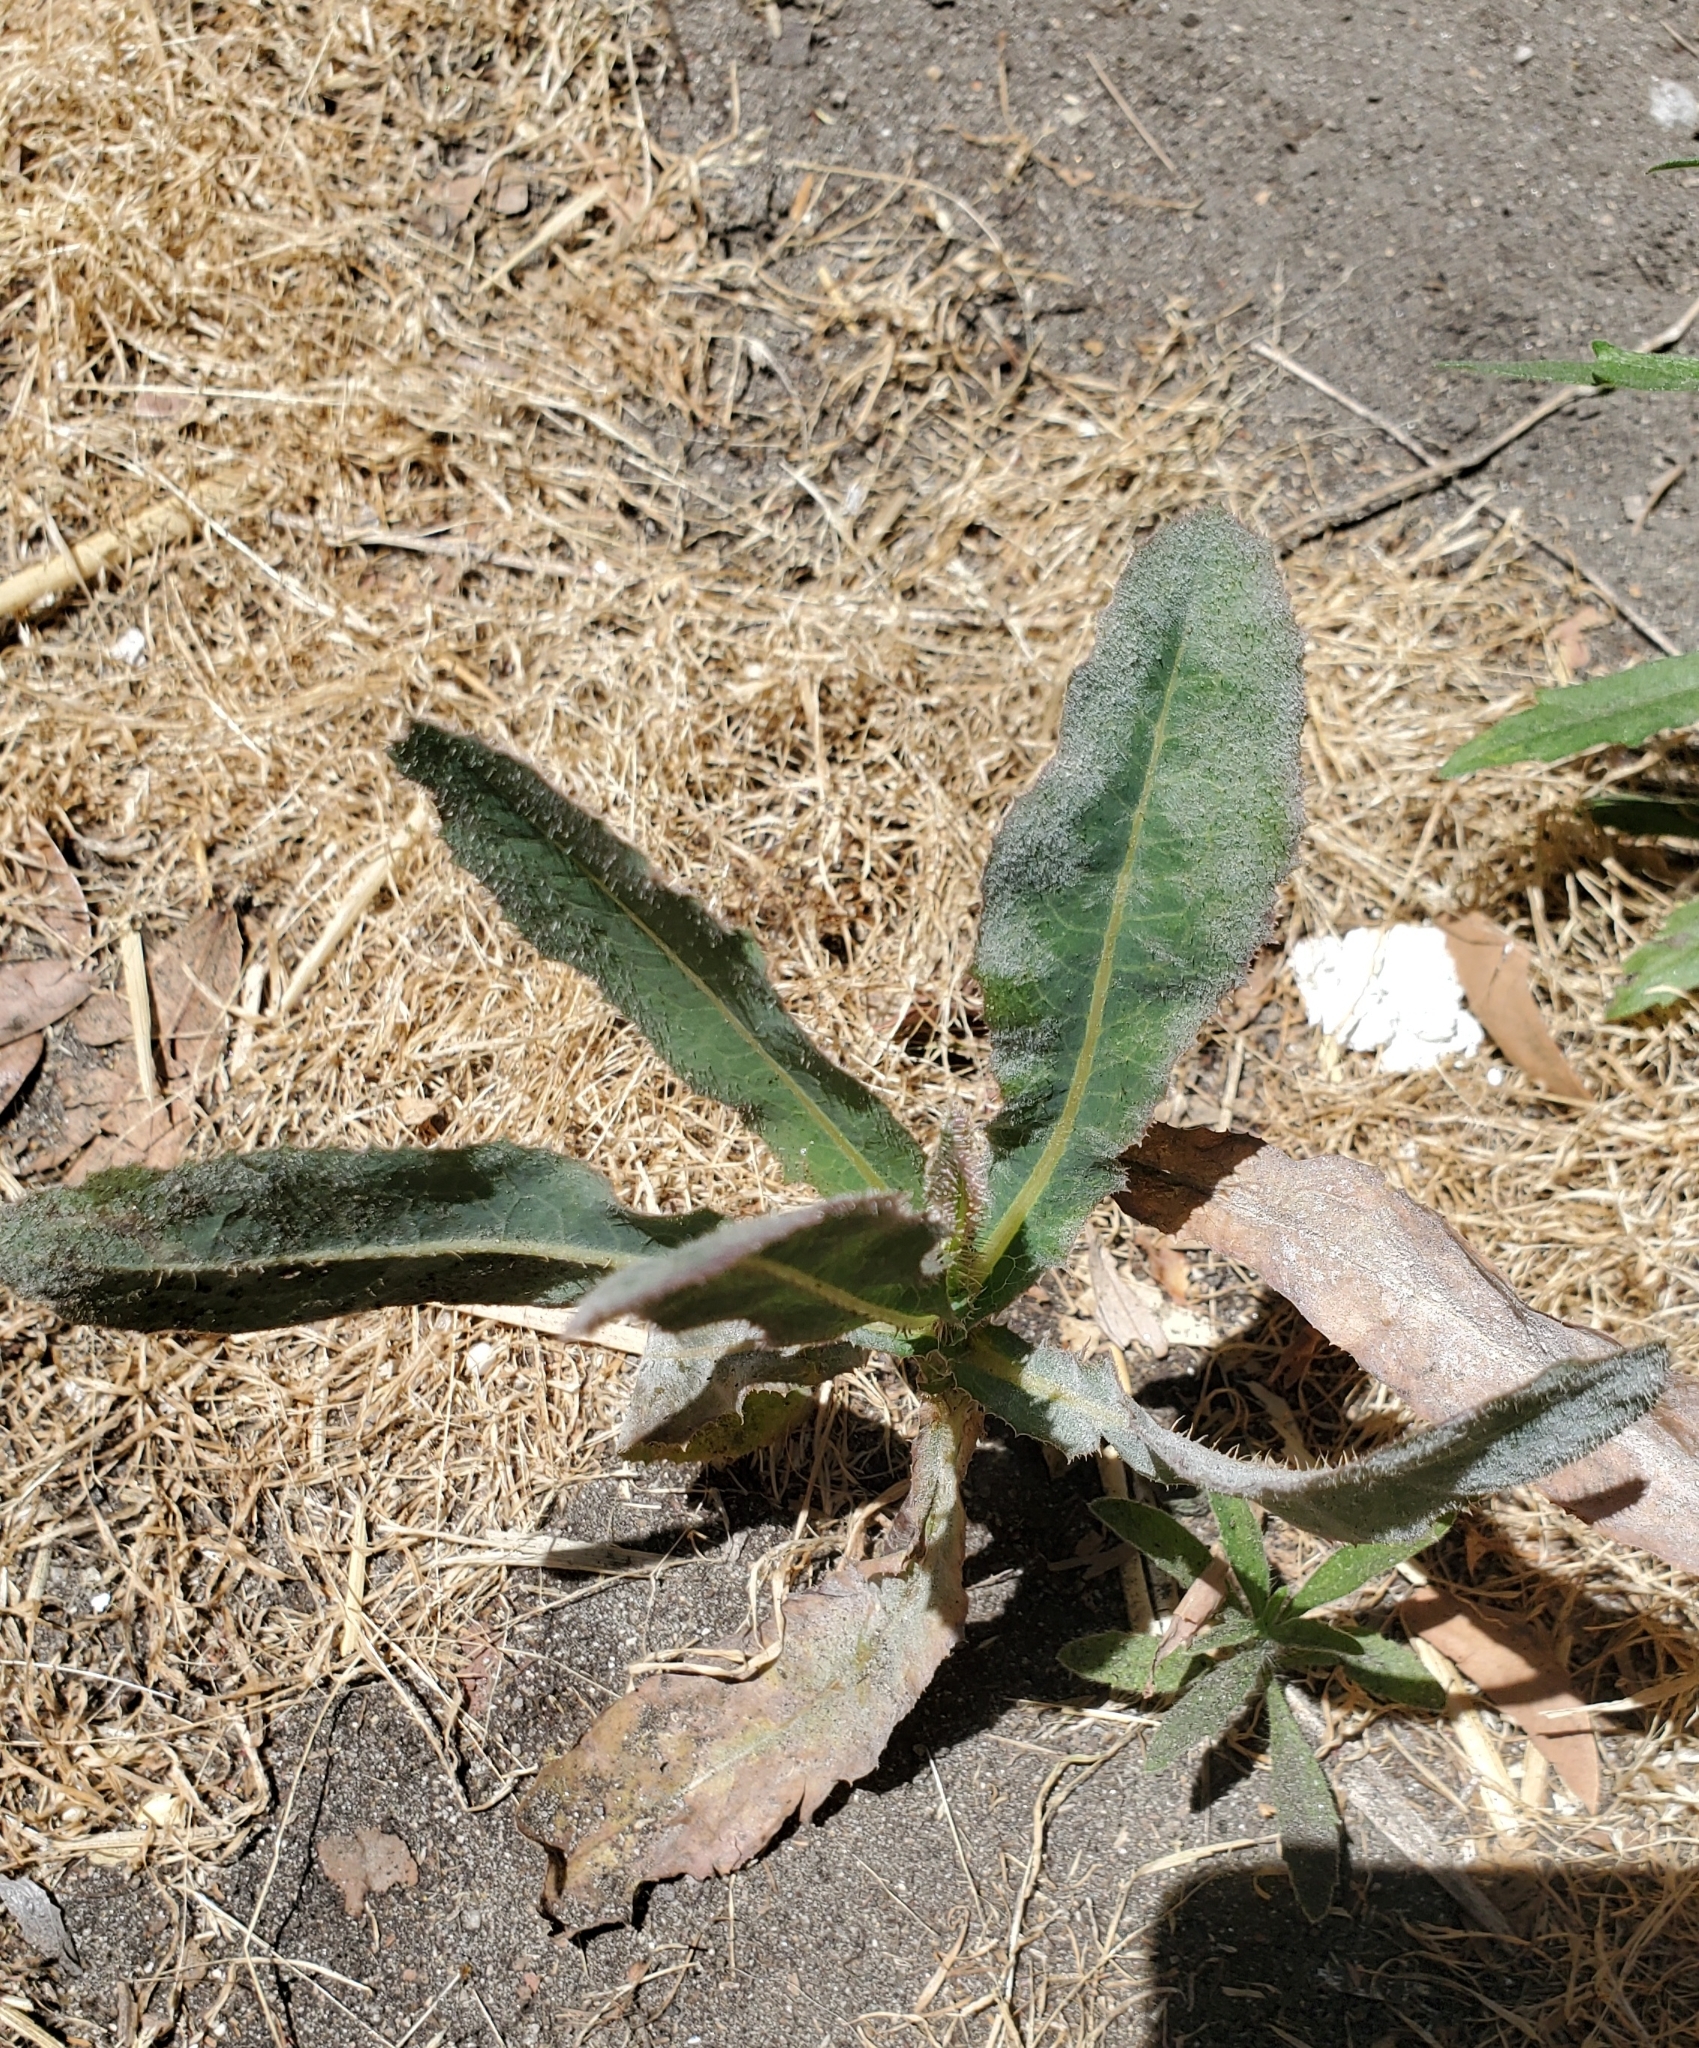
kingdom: Plantae
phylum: Tracheophyta
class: Magnoliopsida
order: Asterales
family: Asteraceae
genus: Lactuca
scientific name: Lactuca serriola
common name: Prickly lettuce
